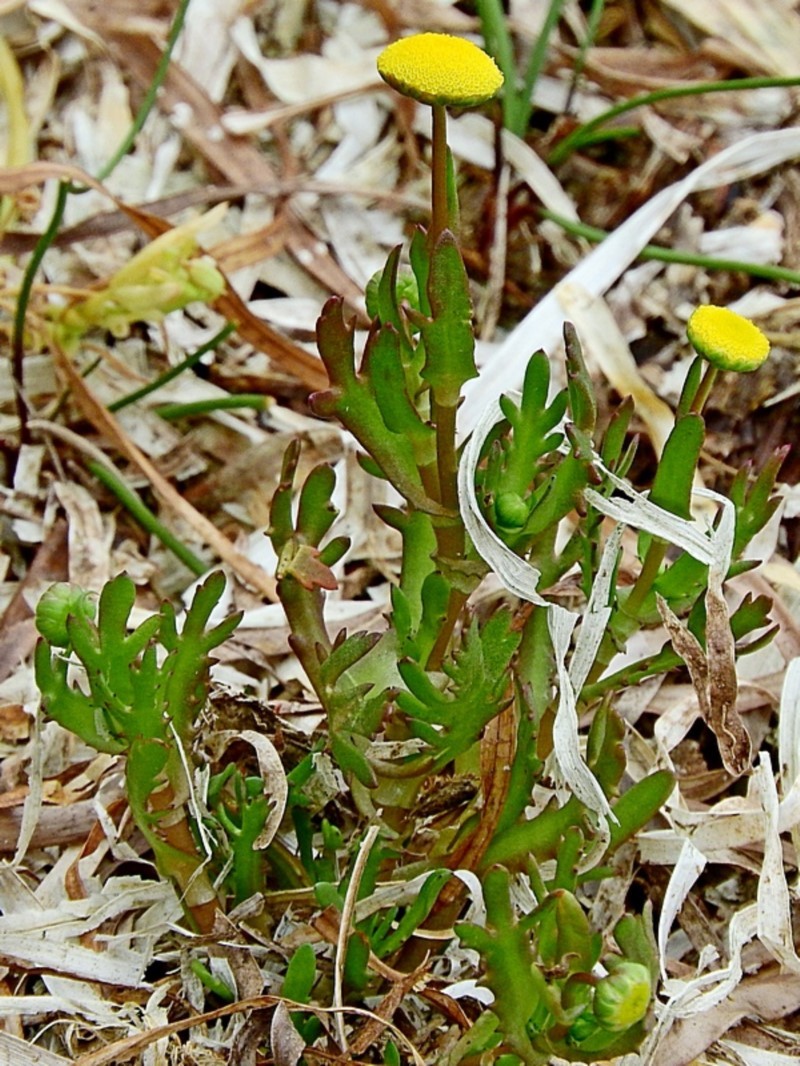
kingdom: Plantae
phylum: Tracheophyta
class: Magnoliopsida
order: Asterales
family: Asteraceae
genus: Cotula
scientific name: Cotula coronopifolia
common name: Buttonweed
